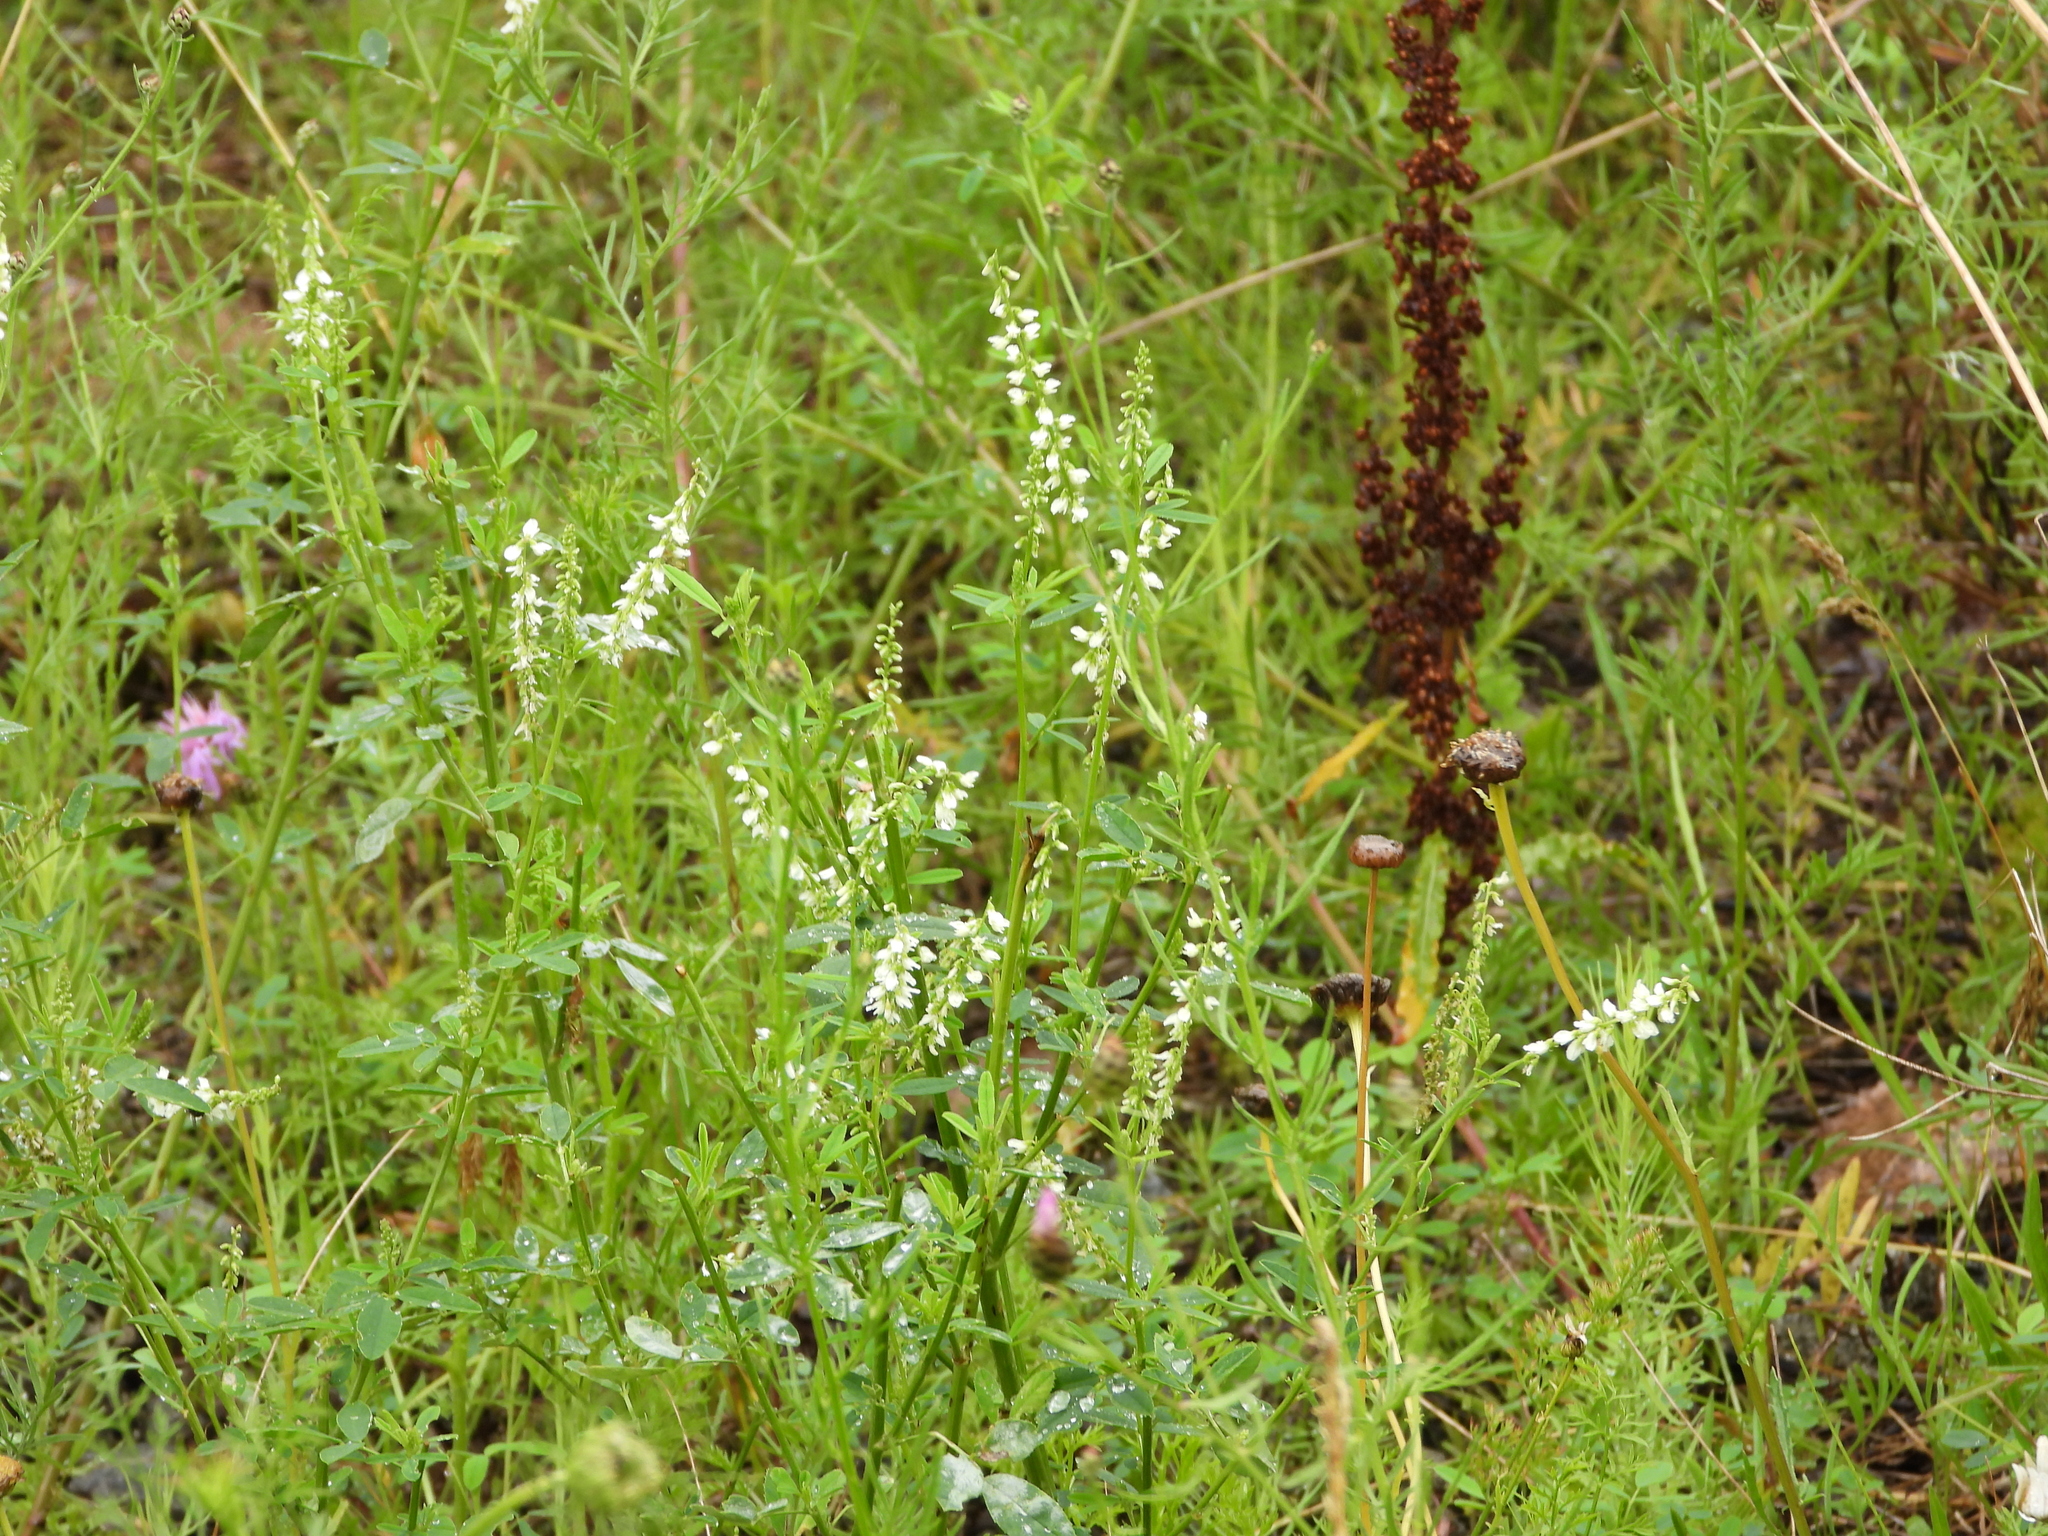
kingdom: Plantae
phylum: Tracheophyta
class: Magnoliopsida
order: Fabales
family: Fabaceae
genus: Melilotus
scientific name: Melilotus albus
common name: White melilot
